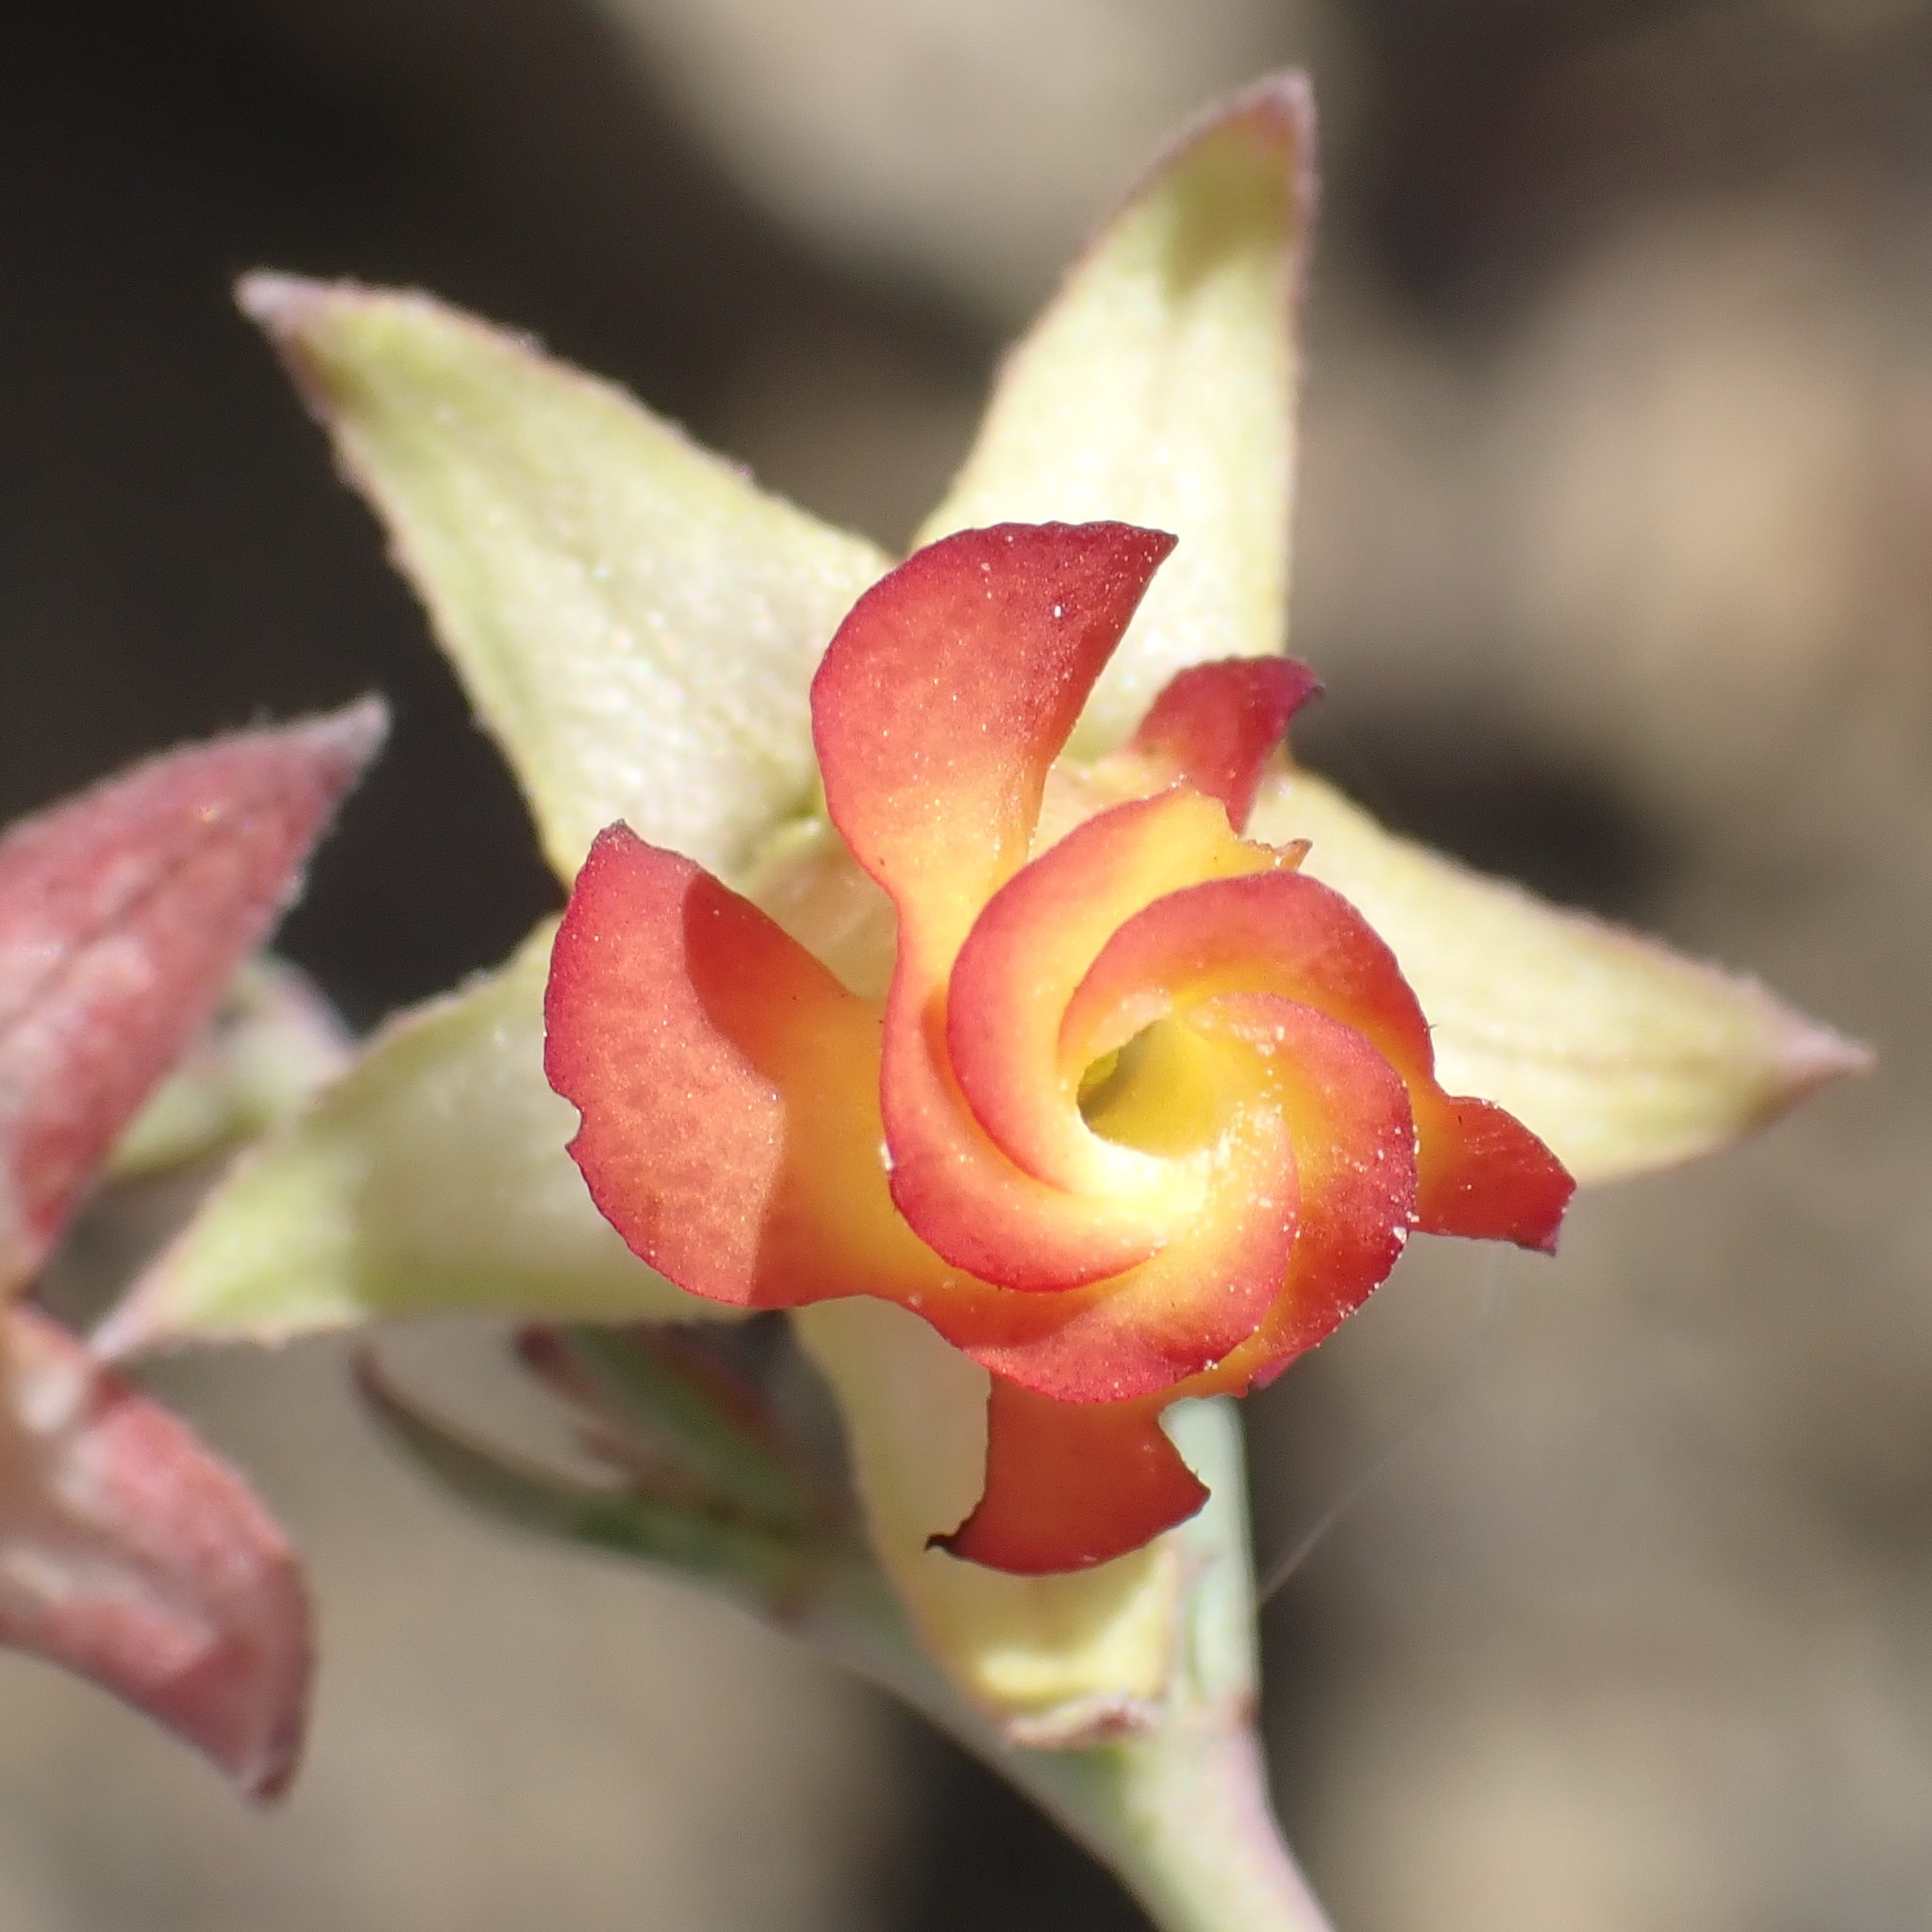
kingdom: Plantae
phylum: Tracheophyta
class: Magnoliopsida
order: Malvales
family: Malvaceae
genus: Hermannia
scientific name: Hermannia filifolia
